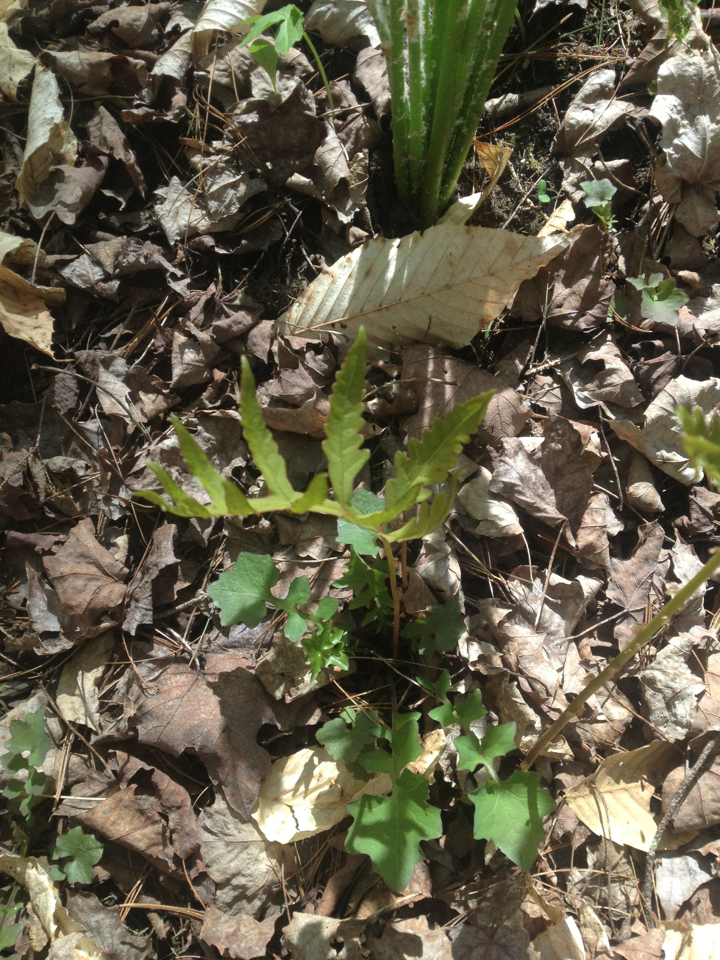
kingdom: Plantae
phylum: Tracheophyta
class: Polypodiopsida
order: Polypodiales
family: Onocleaceae
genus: Onoclea
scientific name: Onoclea sensibilis
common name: Sensitive fern
